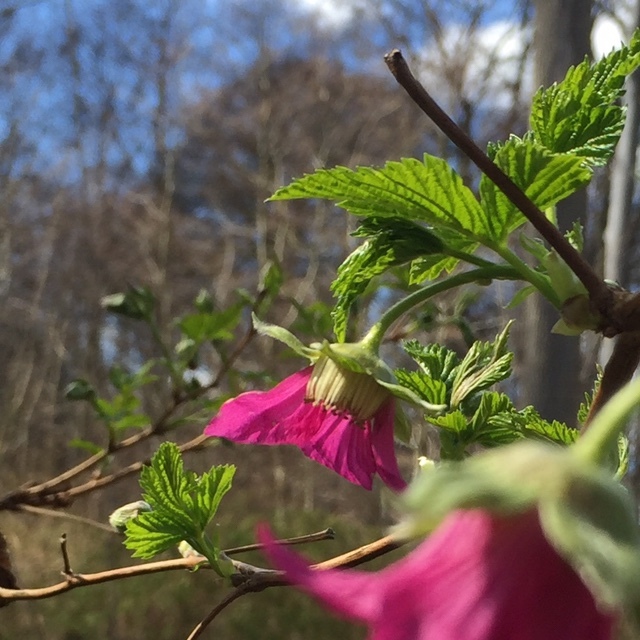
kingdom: Plantae
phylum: Tracheophyta
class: Magnoliopsida
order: Rosales
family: Rosaceae
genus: Rubus
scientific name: Rubus spectabilis
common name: Salmonberry
